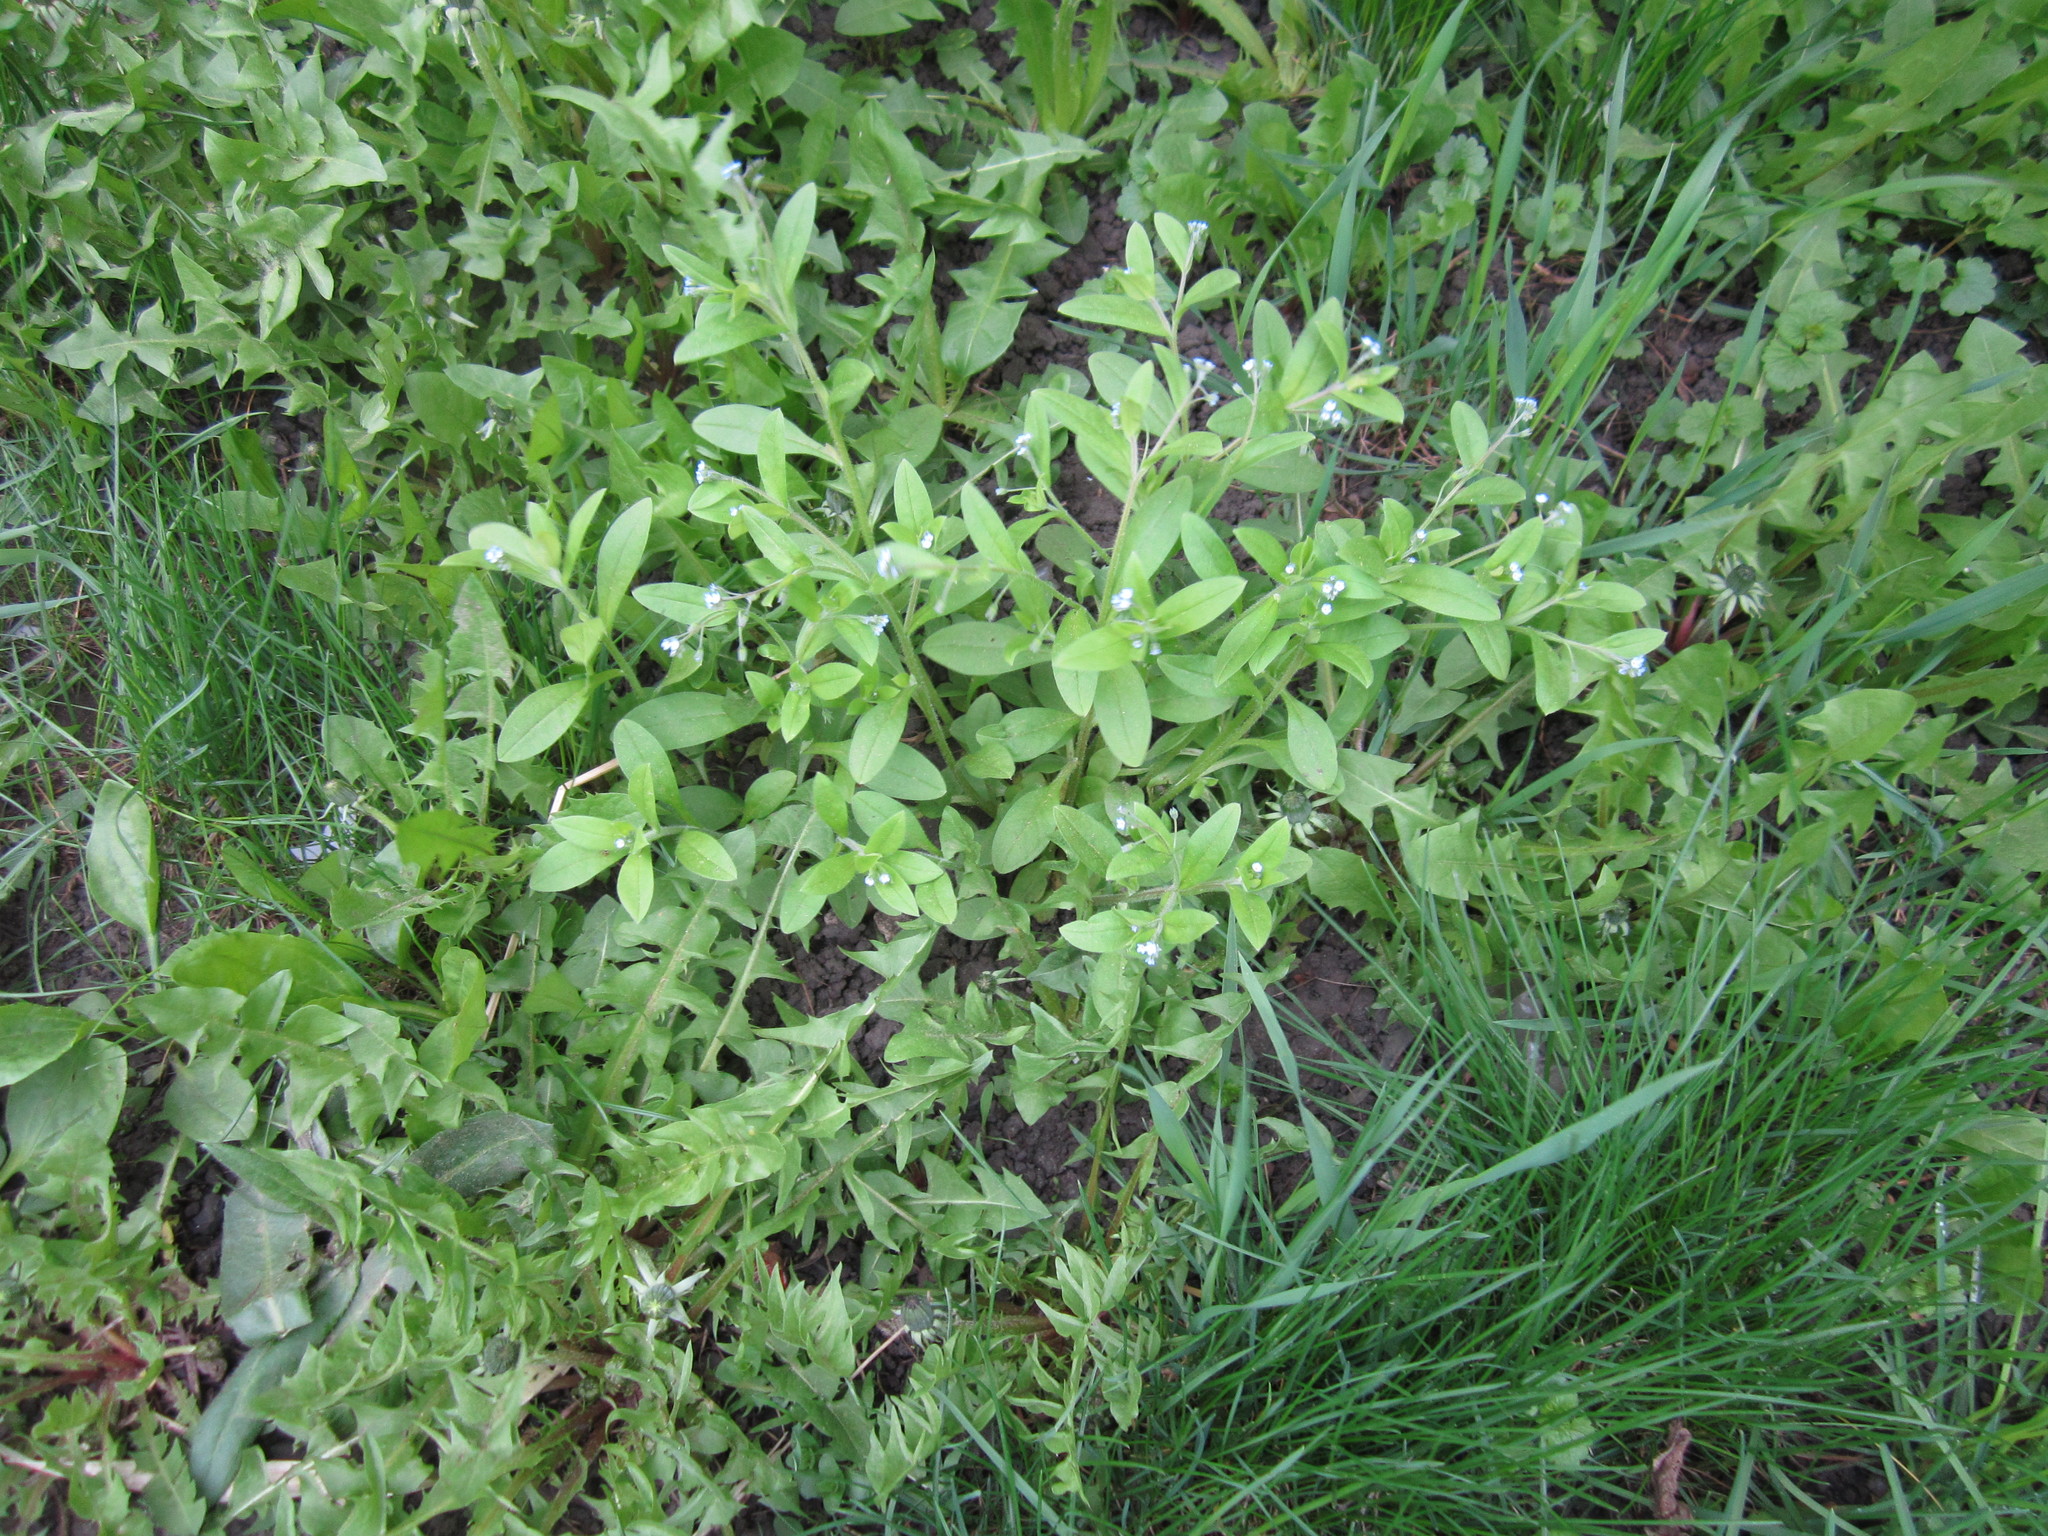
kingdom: Plantae
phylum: Tracheophyta
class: Magnoliopsida
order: Boraginales
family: Boraginaceae
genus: Myosotis
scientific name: Myosotis sparsiflora
